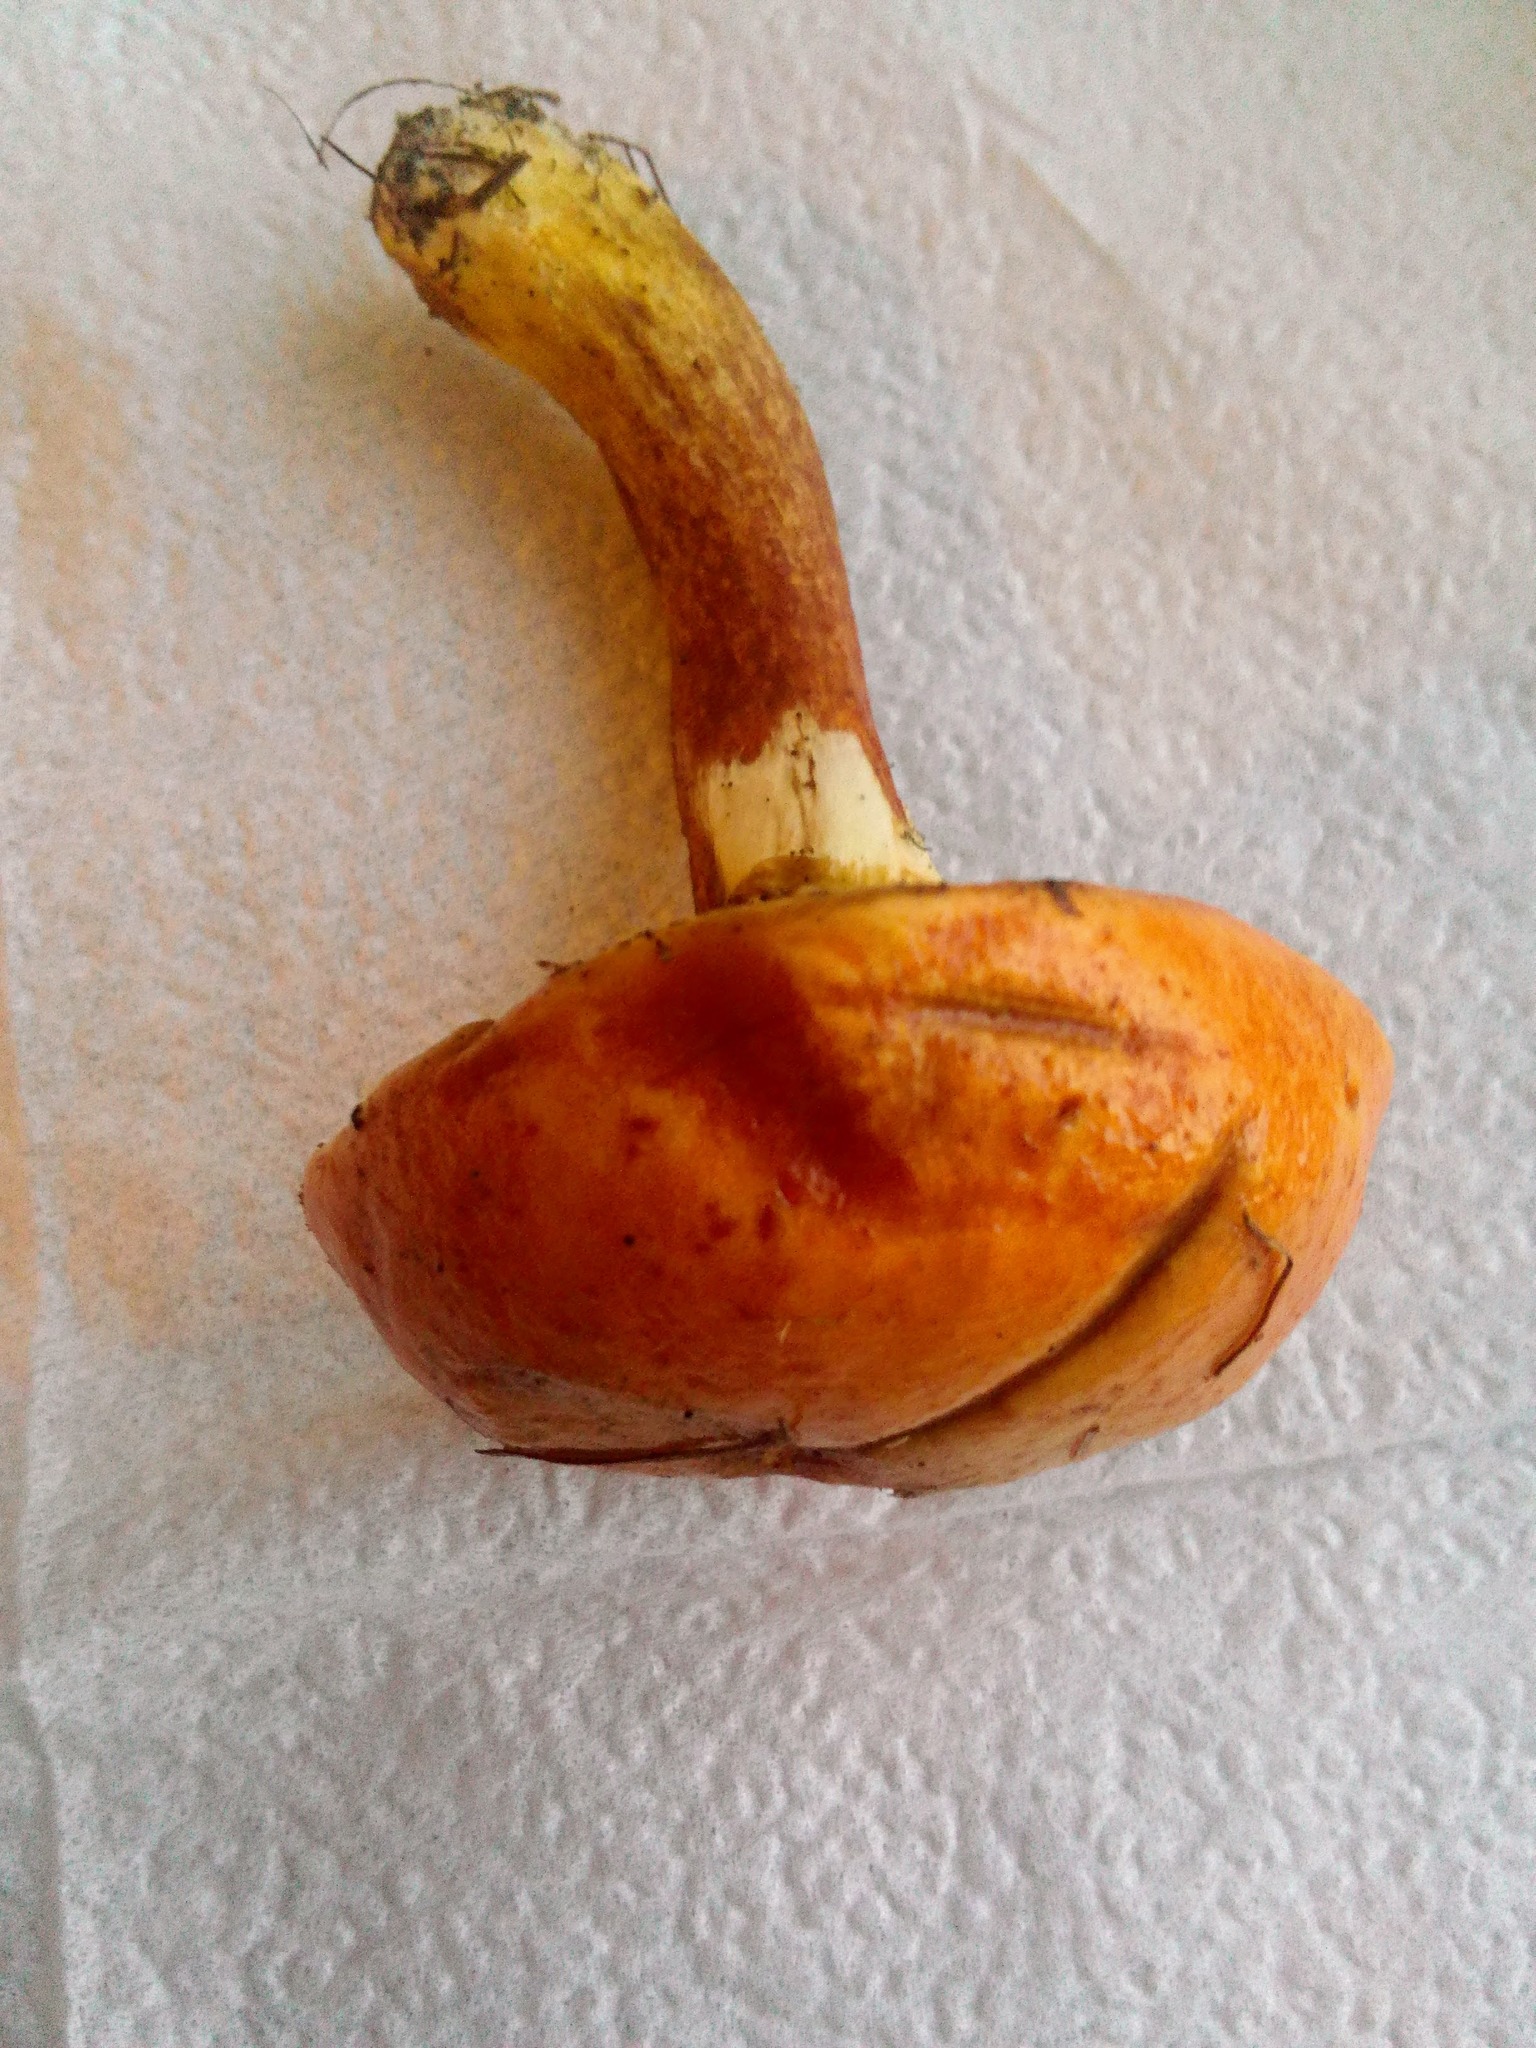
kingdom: Fungi
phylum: Basidiomycota
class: Agaricomycetes
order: Boletales
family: Suillaceae
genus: Suillus
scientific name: Suillus grevillei
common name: Larch bolete
